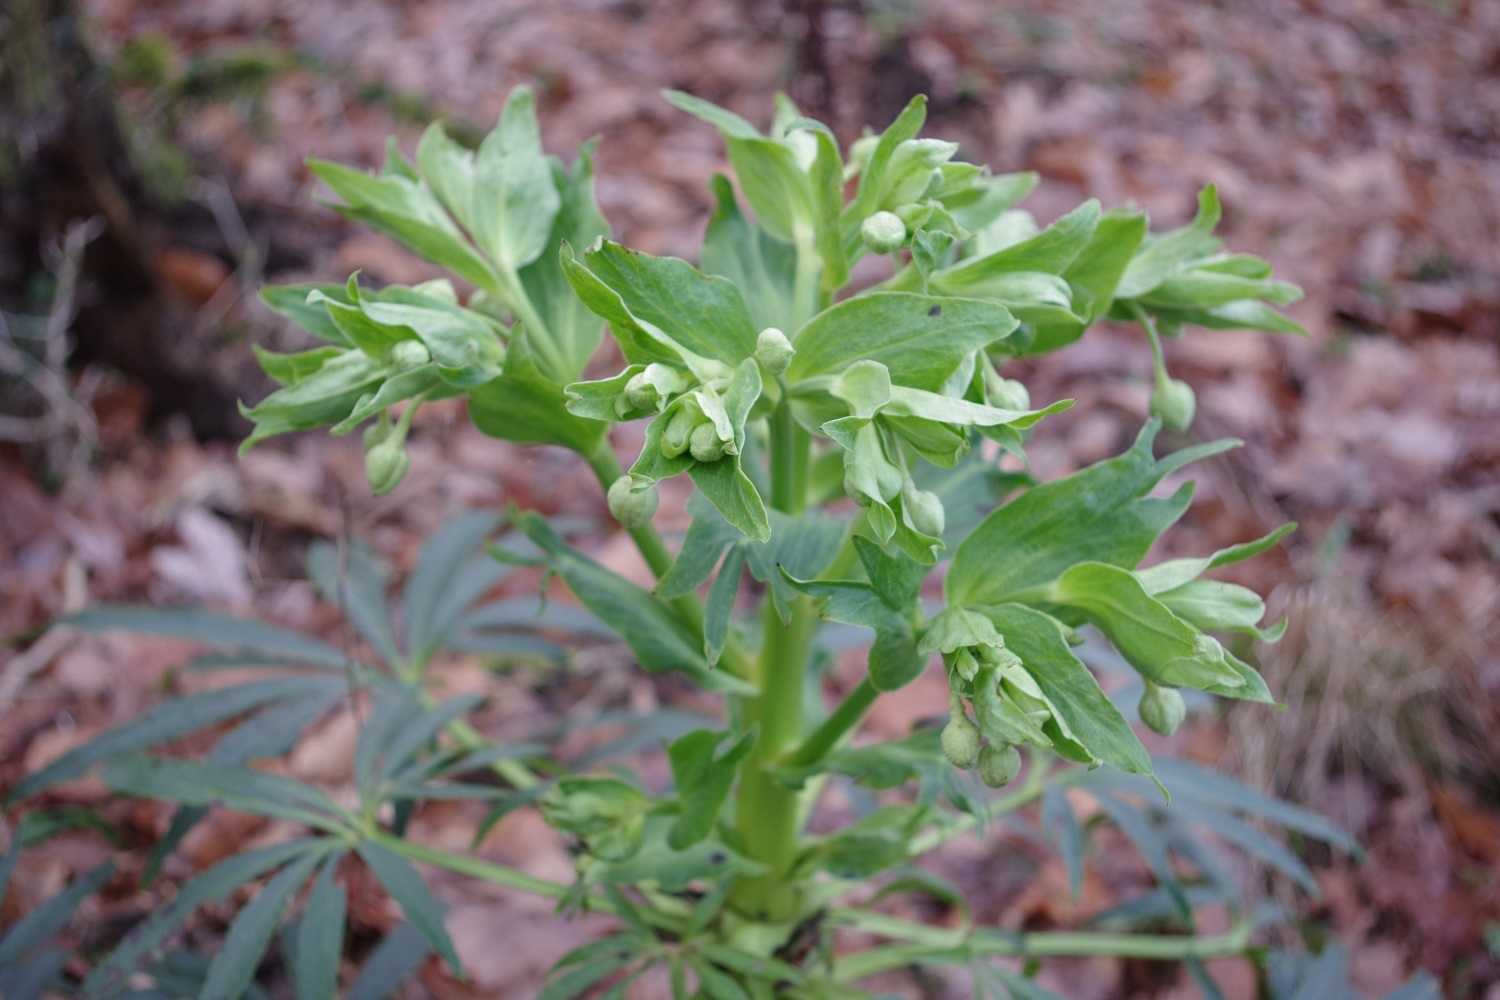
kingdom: Plantae
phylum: Tracheophyta
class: Magnoliopsida
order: Ranunculales
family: Ranunculaceae
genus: Helleborus
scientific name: Helleborus foetidus
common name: Stinking hellebore
